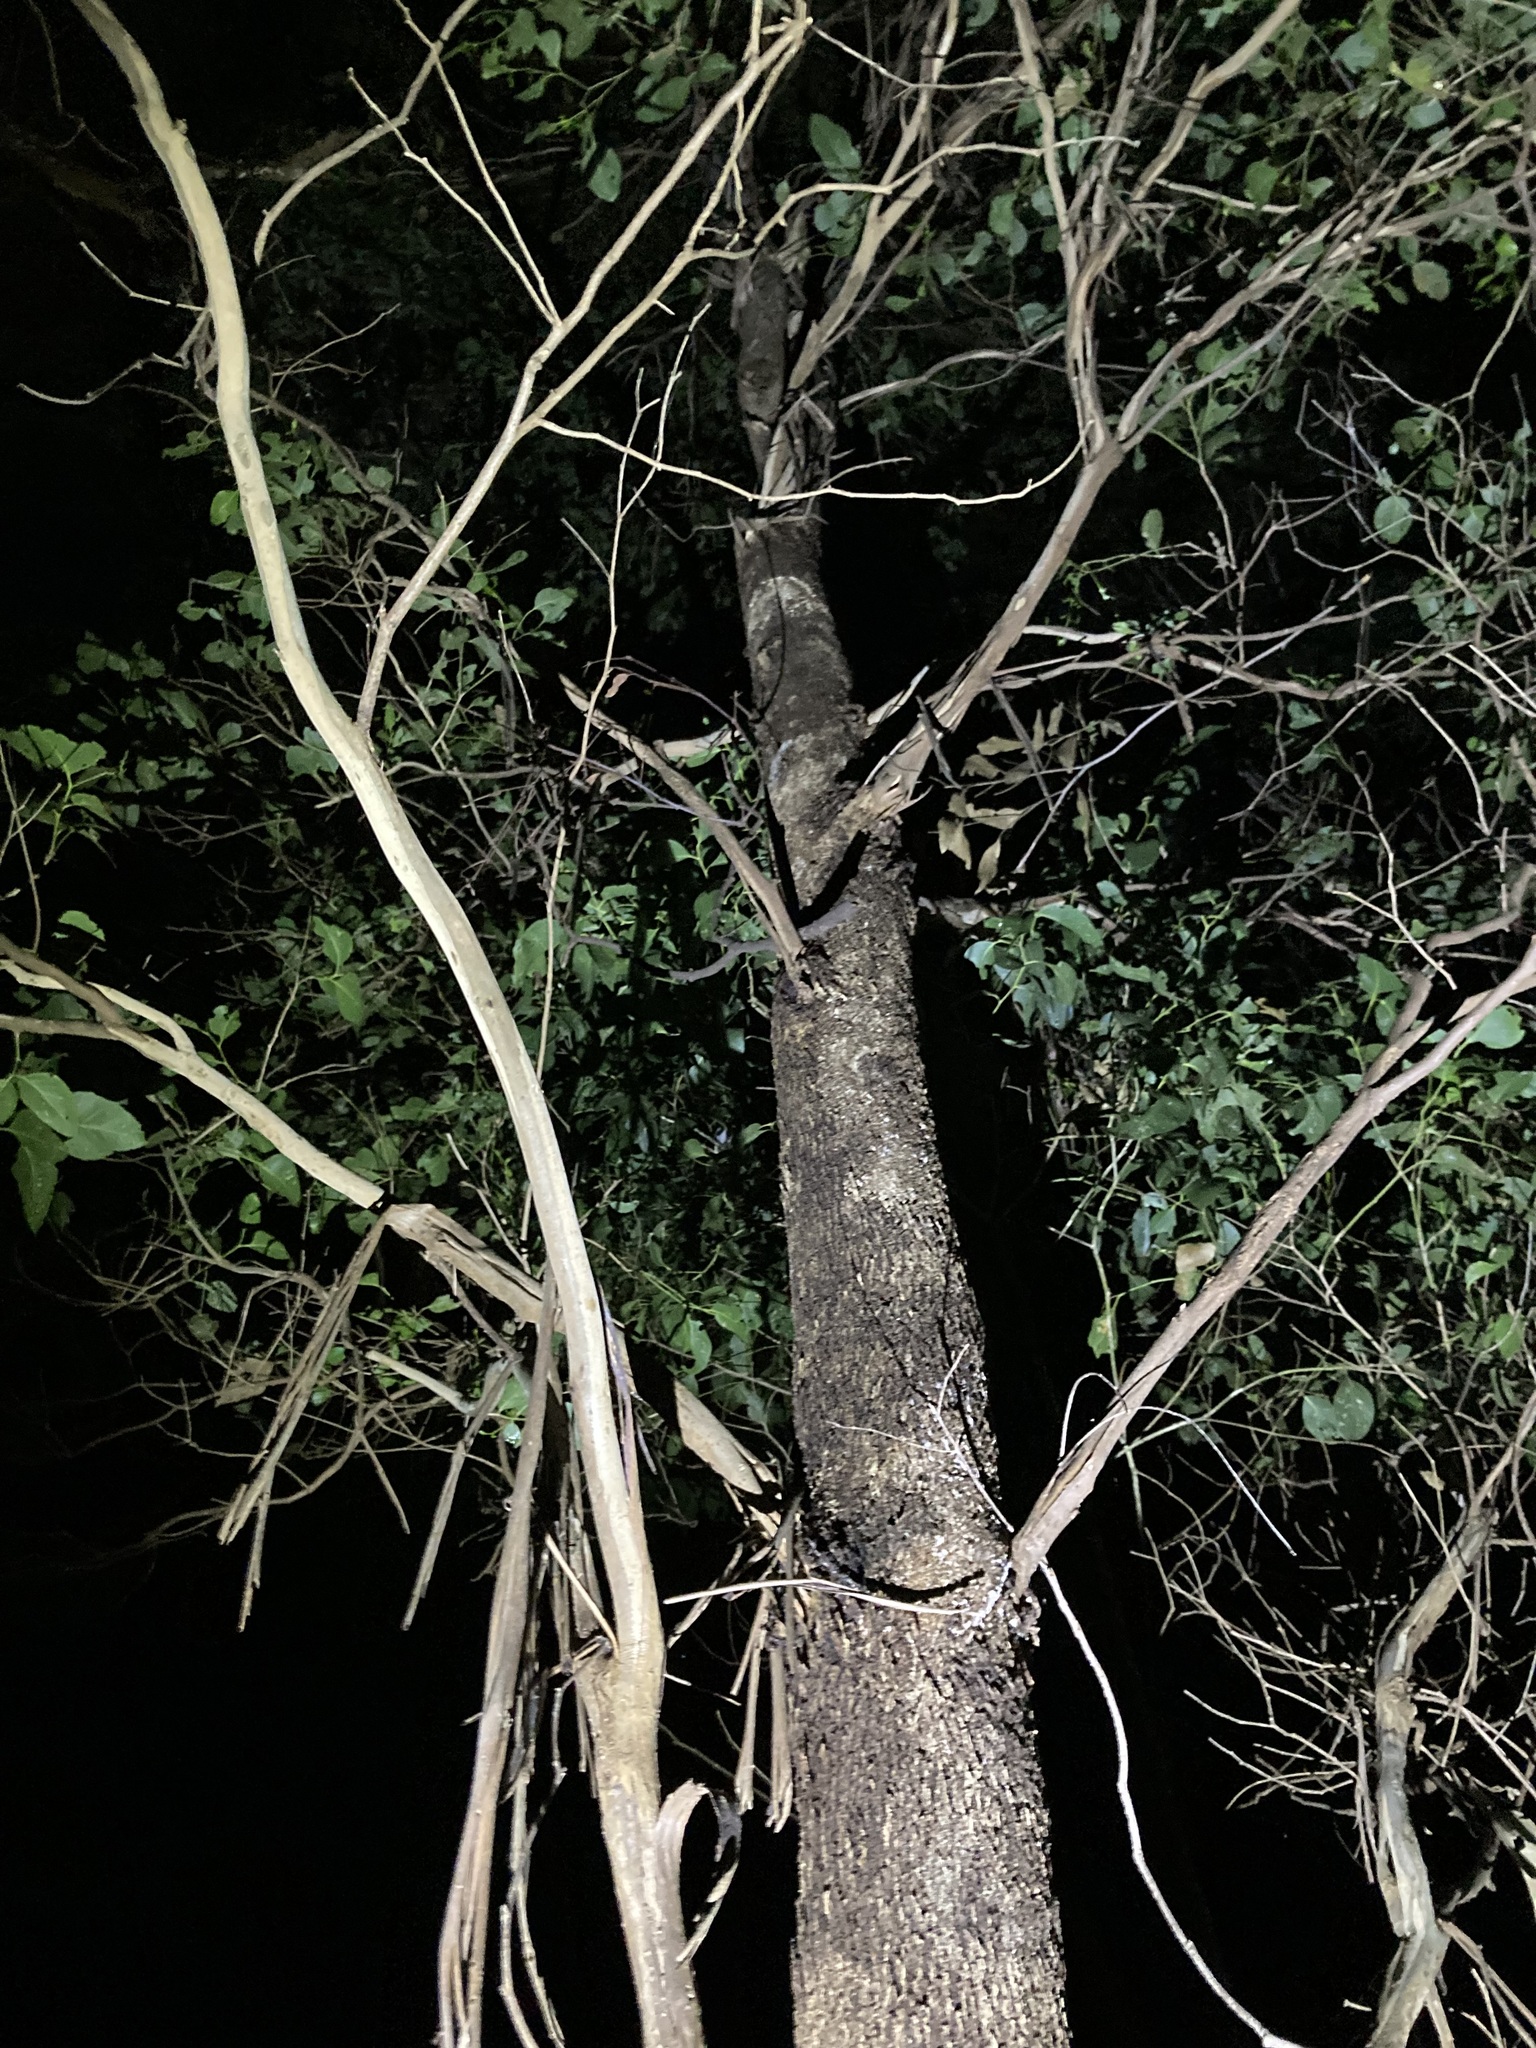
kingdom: Plantae
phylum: Tracheophyta
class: Magnoliopsida
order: Myrtales
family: Myrtaceae
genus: Eucalyptus
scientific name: Eucalyptus moluccana
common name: Grey-box
